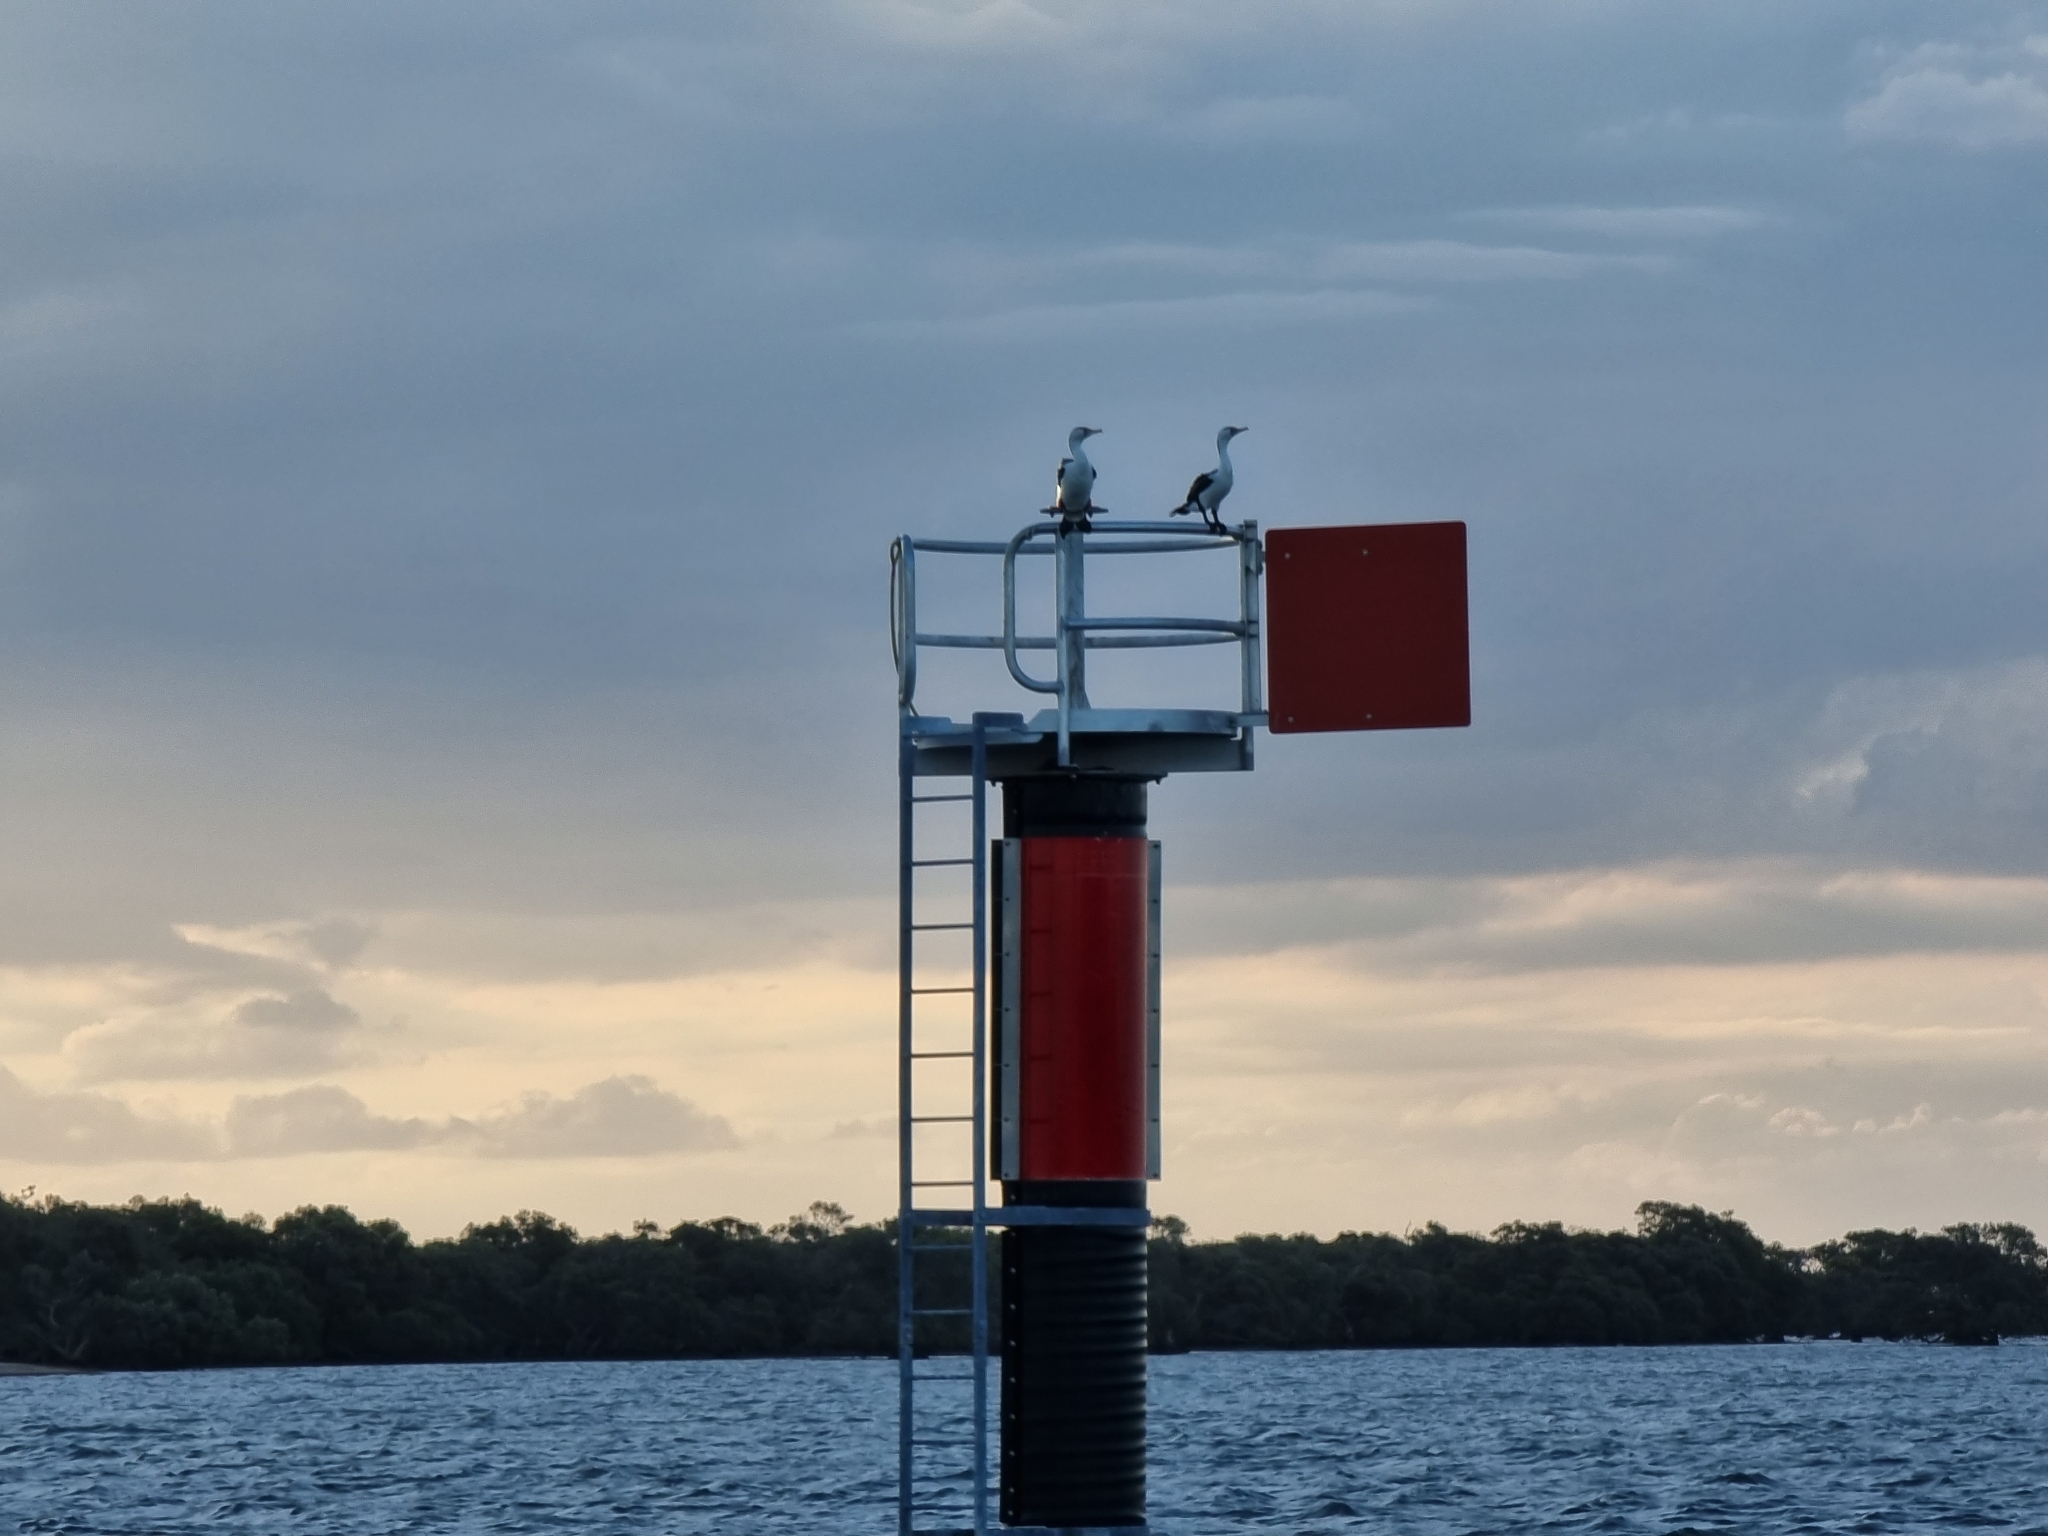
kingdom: Animalia
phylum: Chordata
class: Aves
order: Suliformes
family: Phalacrocoracidae
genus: Phalacrocorax
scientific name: Phalacrocorax varius
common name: Pied cormorant
